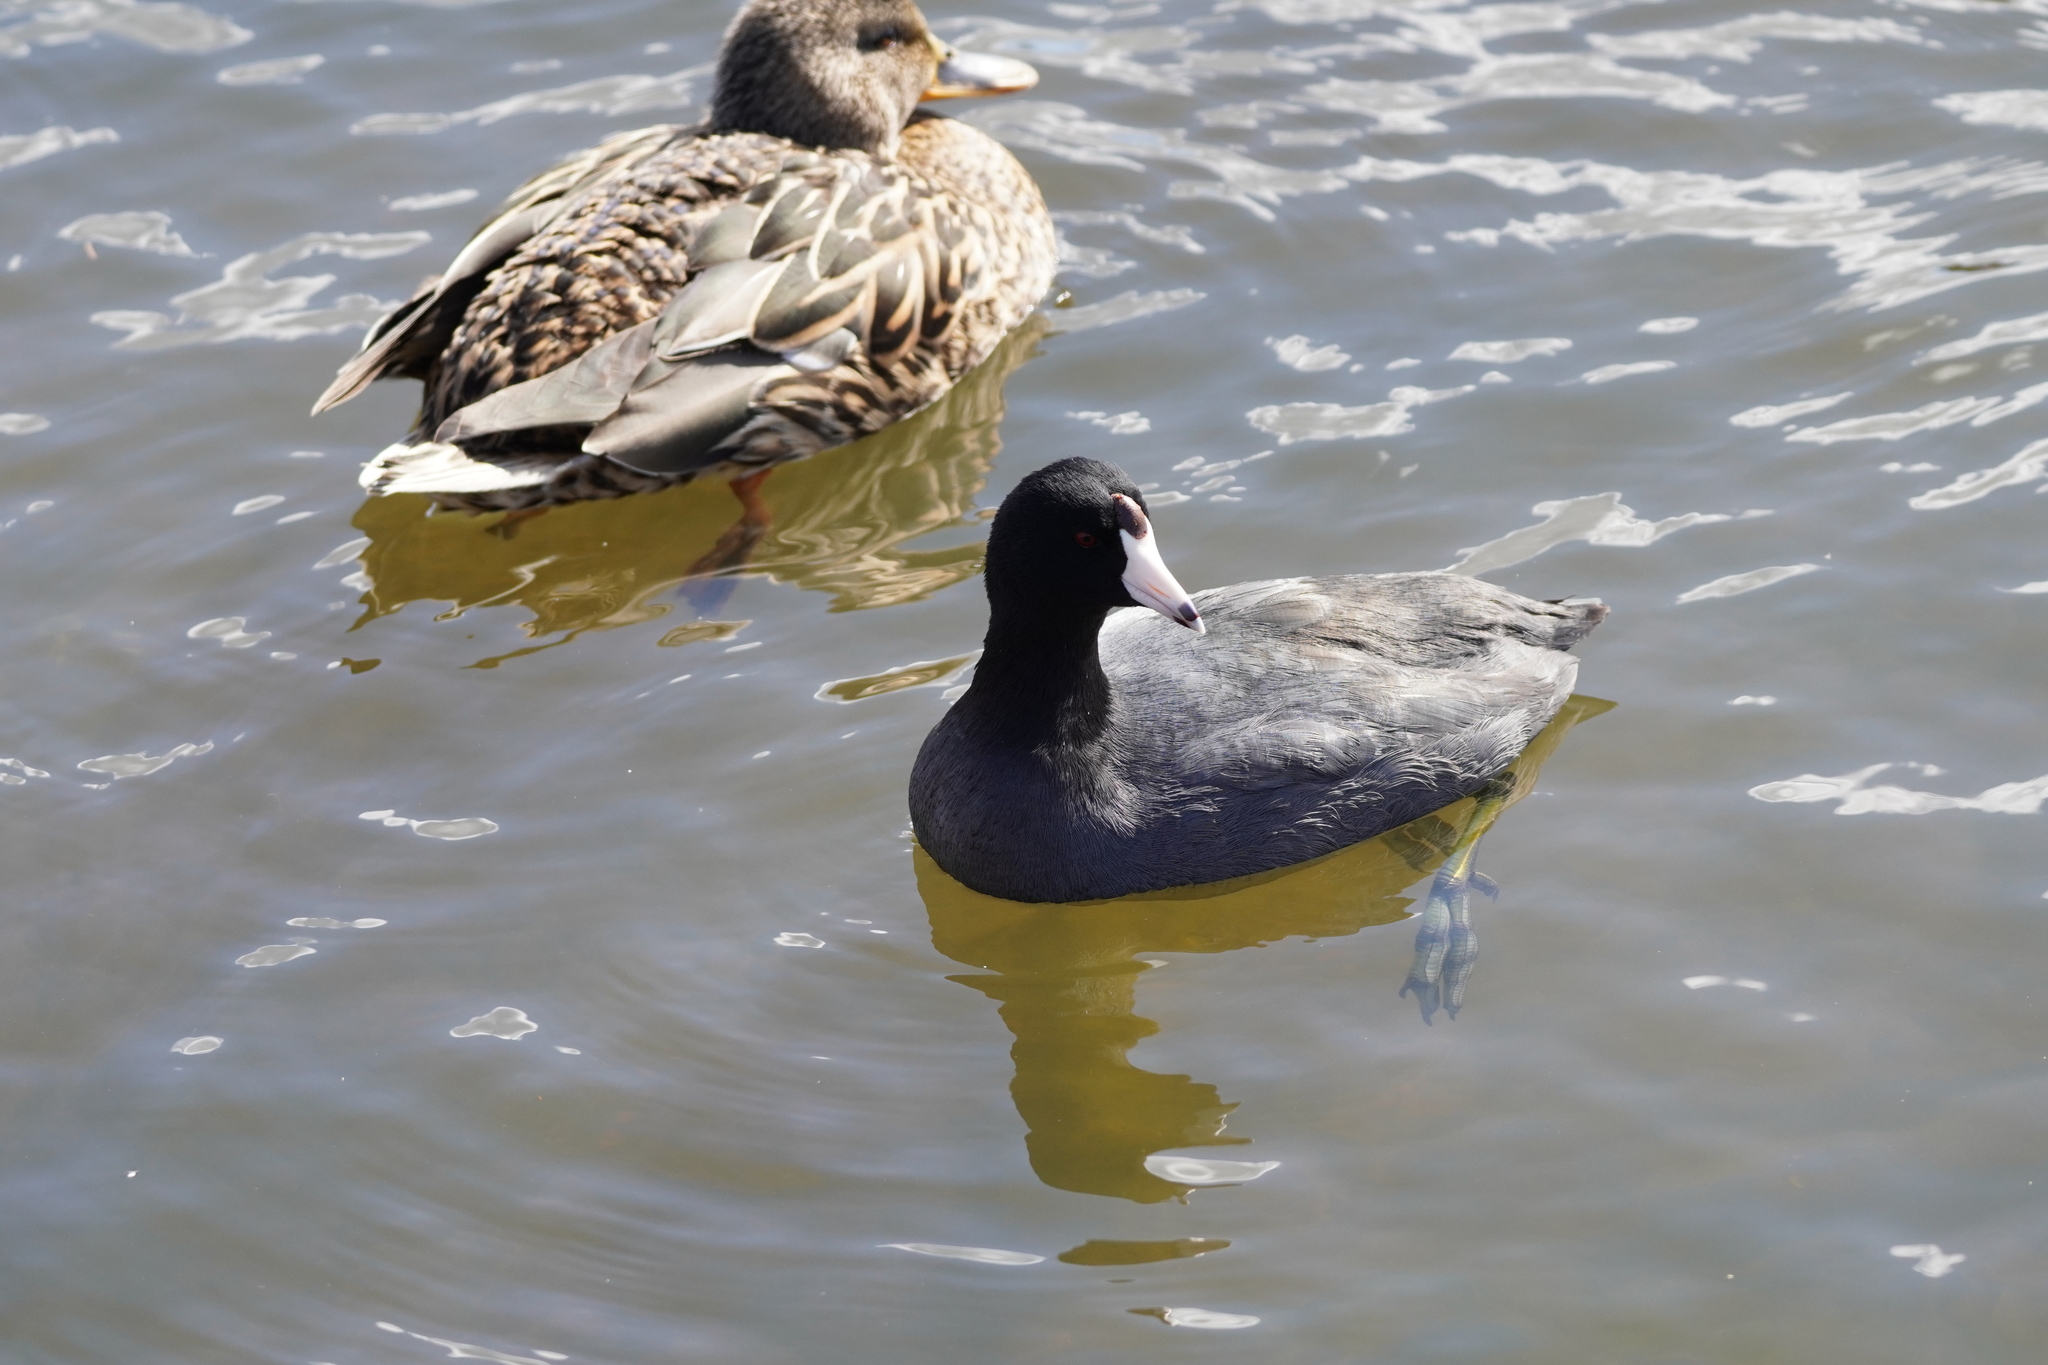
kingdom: Animalia
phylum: Chordata
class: Aves
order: Gruiformes
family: Rallidae
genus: Fulica
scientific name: Fulica americana
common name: American coot
